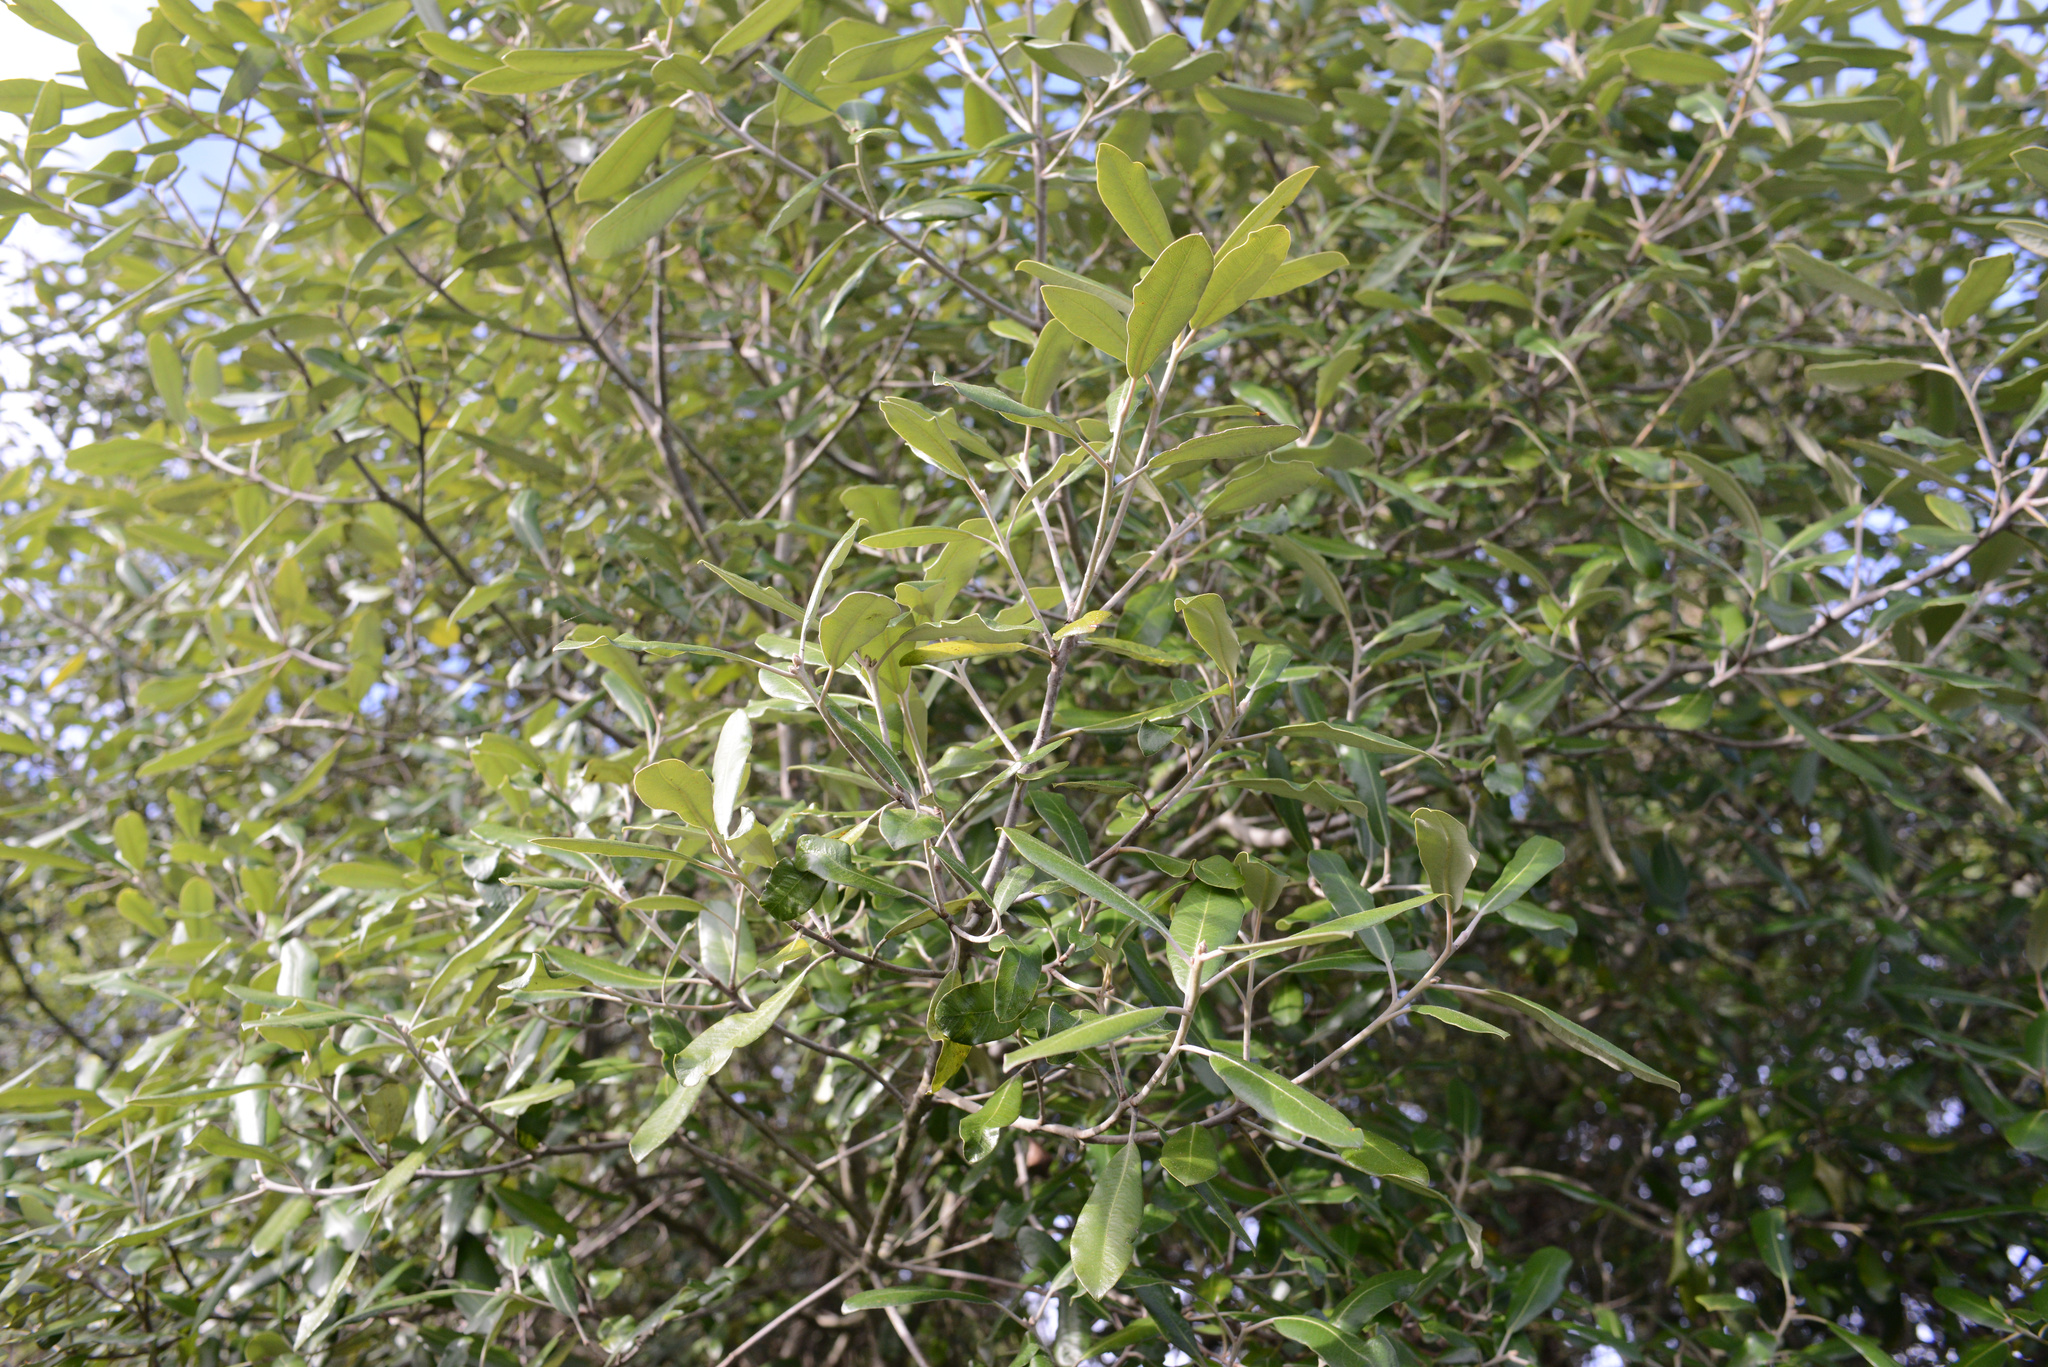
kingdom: Plantae
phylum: Tracheophyta
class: Magnoliopsida
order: Apiales
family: Pittosporaceae
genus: Pittosporum
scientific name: Pittosporum ralphii
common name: Ralph's desertwillow
